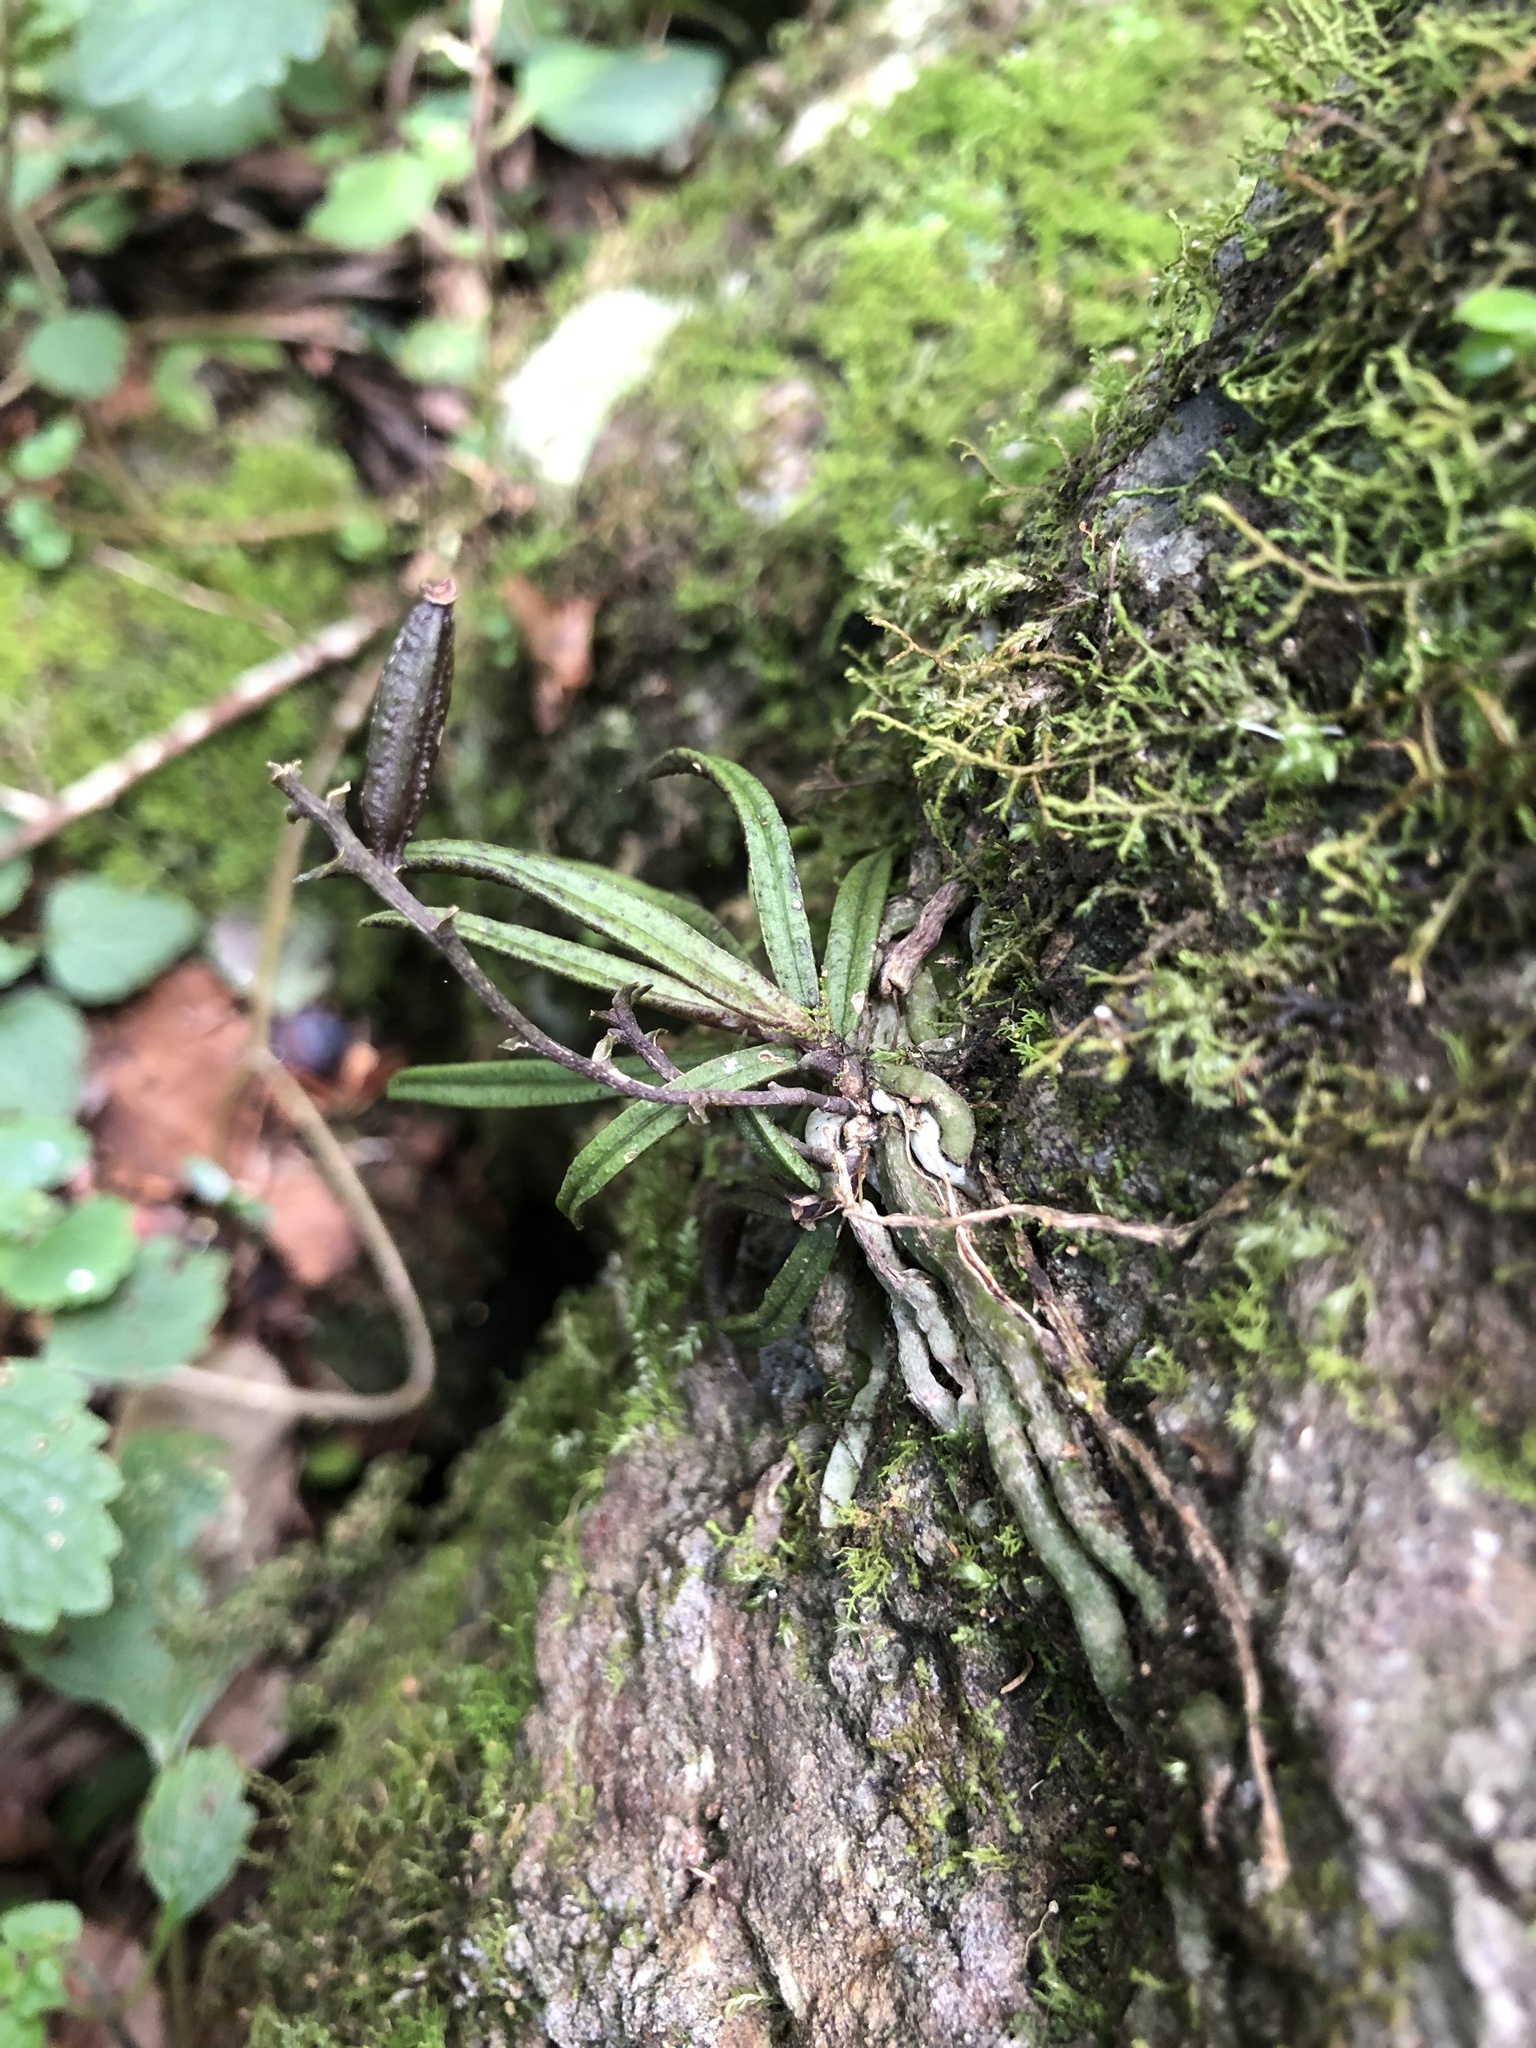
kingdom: Plantae
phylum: Tracheophyta
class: Liliopsida
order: Asparagales
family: Orchidaceae
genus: Sarcochilus
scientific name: Sarcochilus ceciliae
